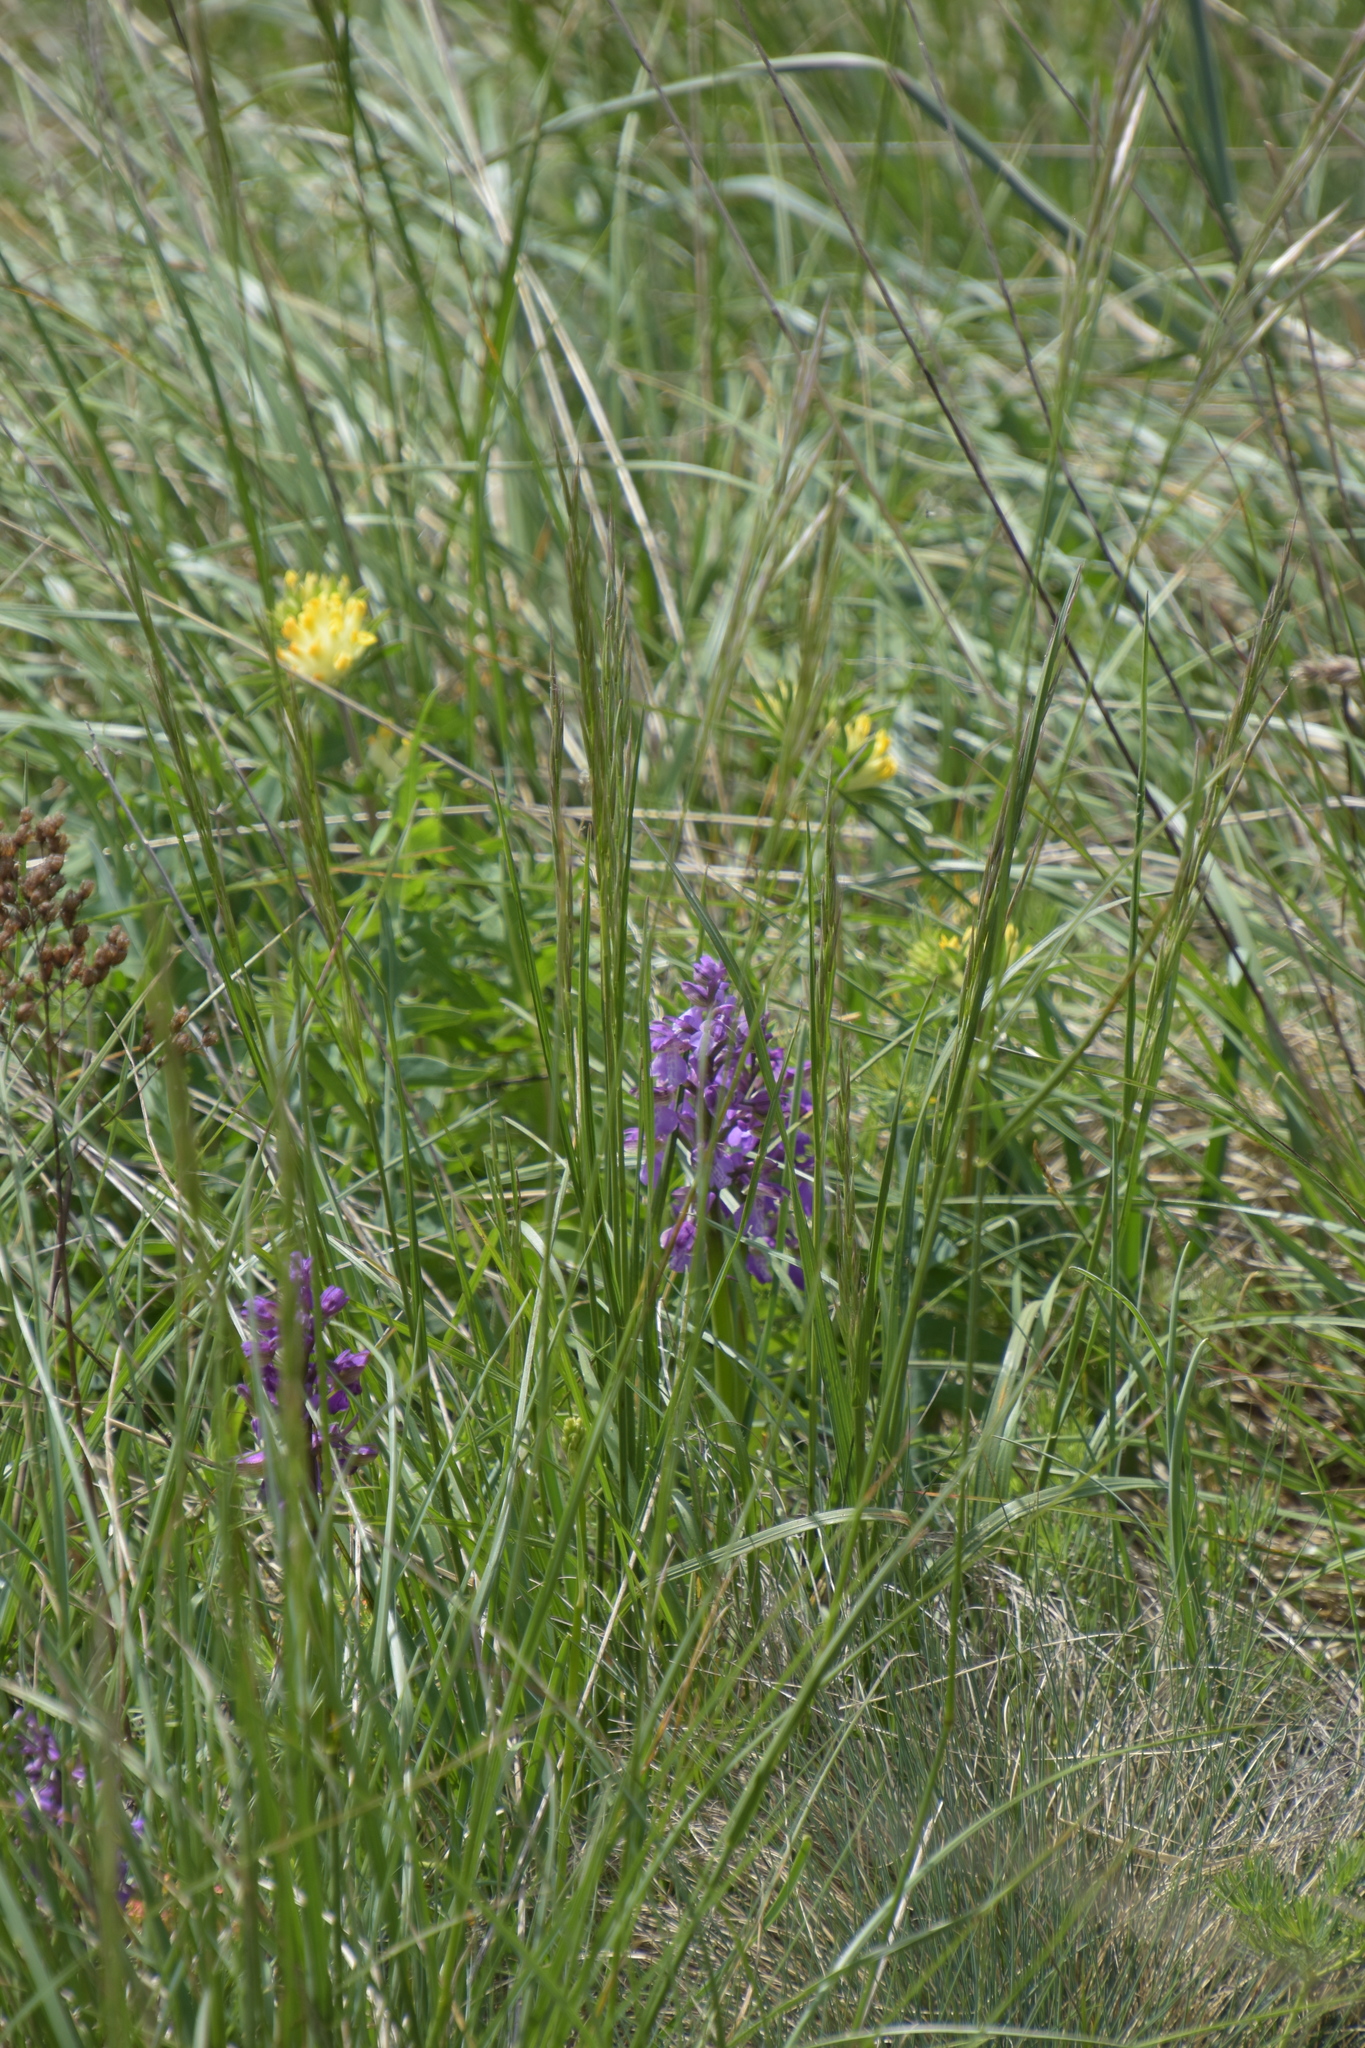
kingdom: Plantae
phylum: Tracheophyta
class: Liliopsida
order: Asparagales
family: Orchidaceae
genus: Anacamptis
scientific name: Anacamptis morio
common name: Green-winged orchid
